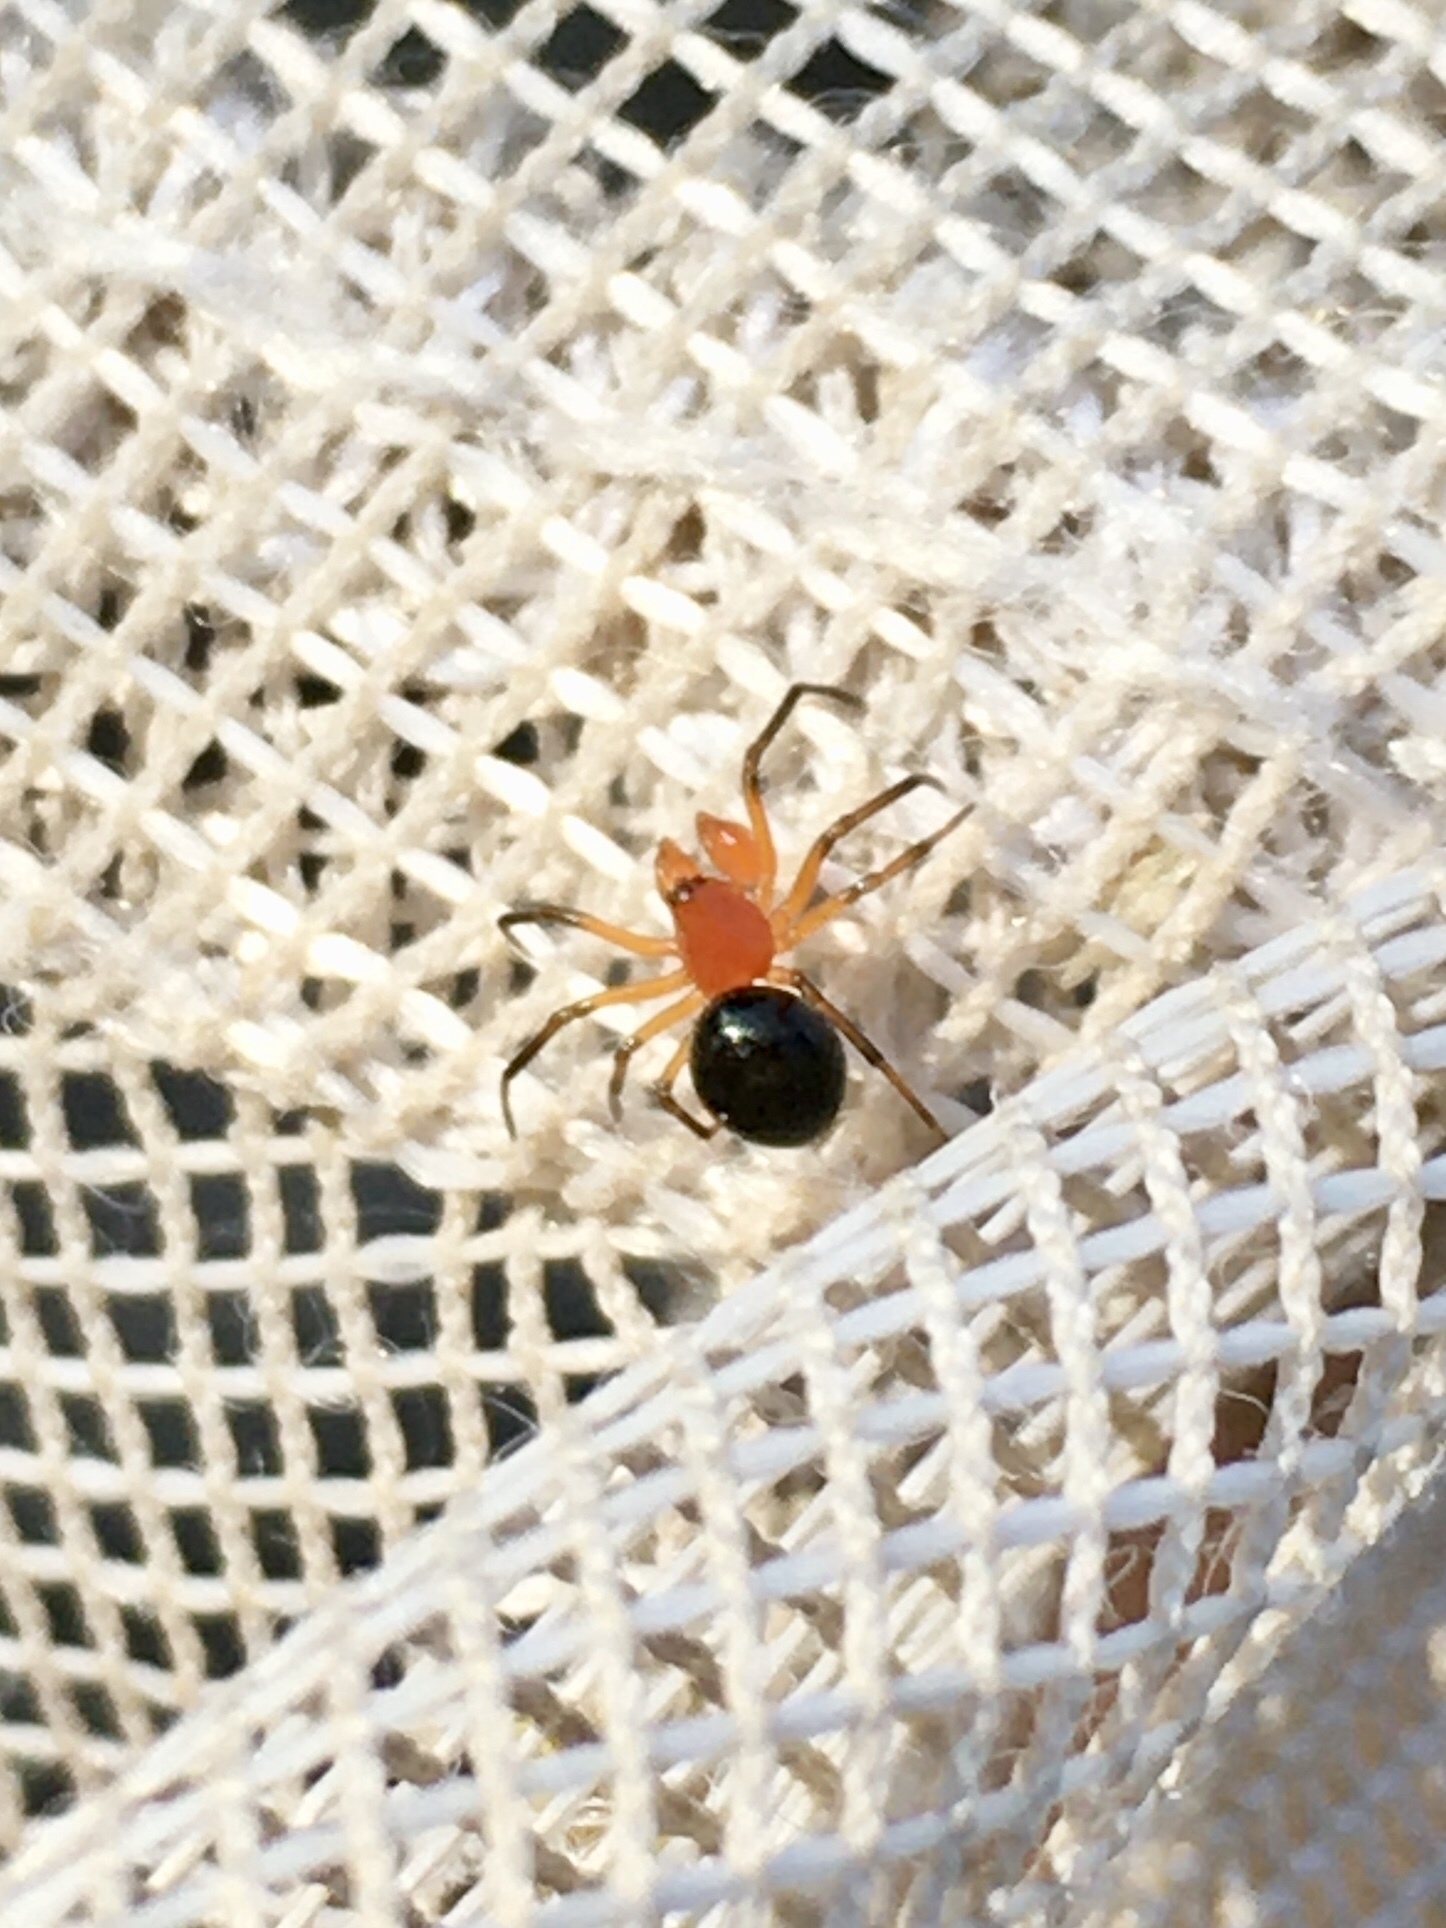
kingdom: Animalia
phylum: Arthropoda
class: Arachnida
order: Araneae
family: Linyphiidae
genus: Hypselistes
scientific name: Hypselistes florens
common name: Peatland sheetweb weaver
